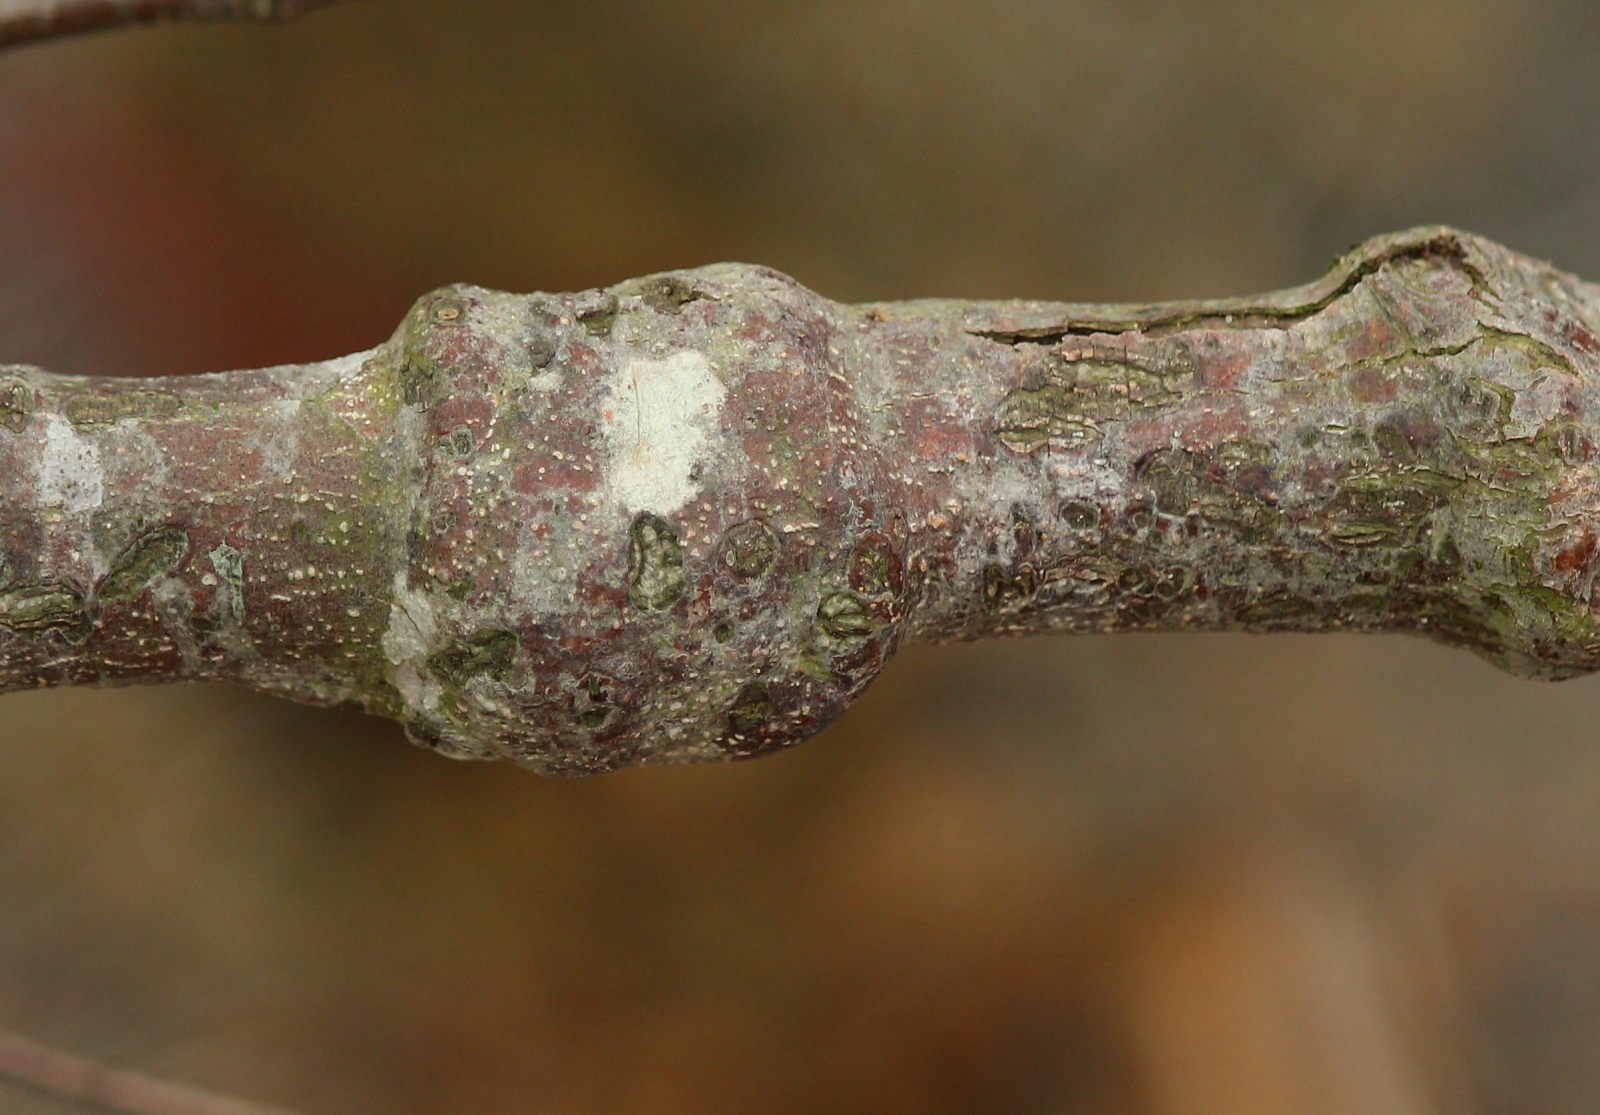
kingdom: Plantae
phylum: Tracheophyta
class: Magnoliopsida
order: Fagales
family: Betulaceae
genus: Alnus
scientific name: Alnus serrulata
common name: Hazel alder
